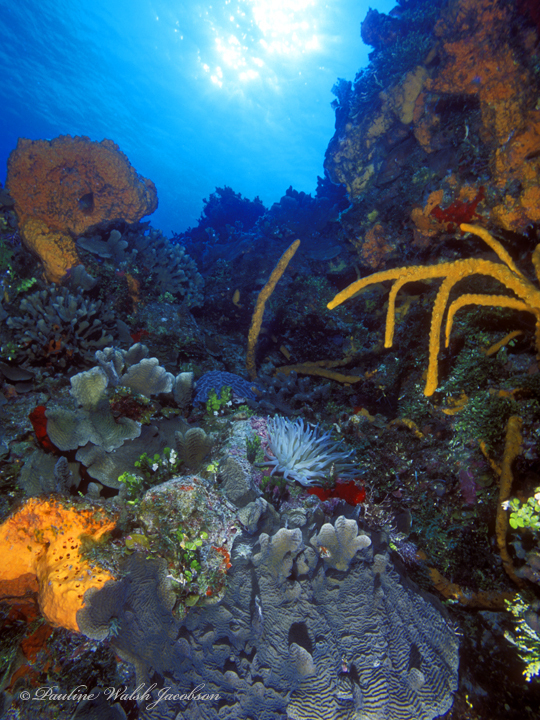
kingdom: Animalia
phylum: Porifera
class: Demospongiae
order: Agelasida
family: Agelasidae
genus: Agelas
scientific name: Agelas clathrodes
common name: Orange elephant ear sponge
